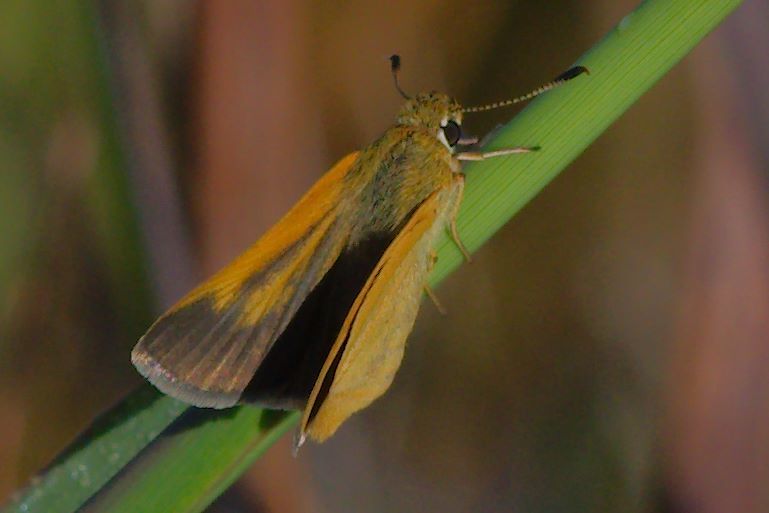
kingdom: Animalia
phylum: Arthropoda
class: Insecta
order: Lepidoptera
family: Hesperiidae
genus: Atrytone
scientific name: Atrytone arogos
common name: Arogos skipper
